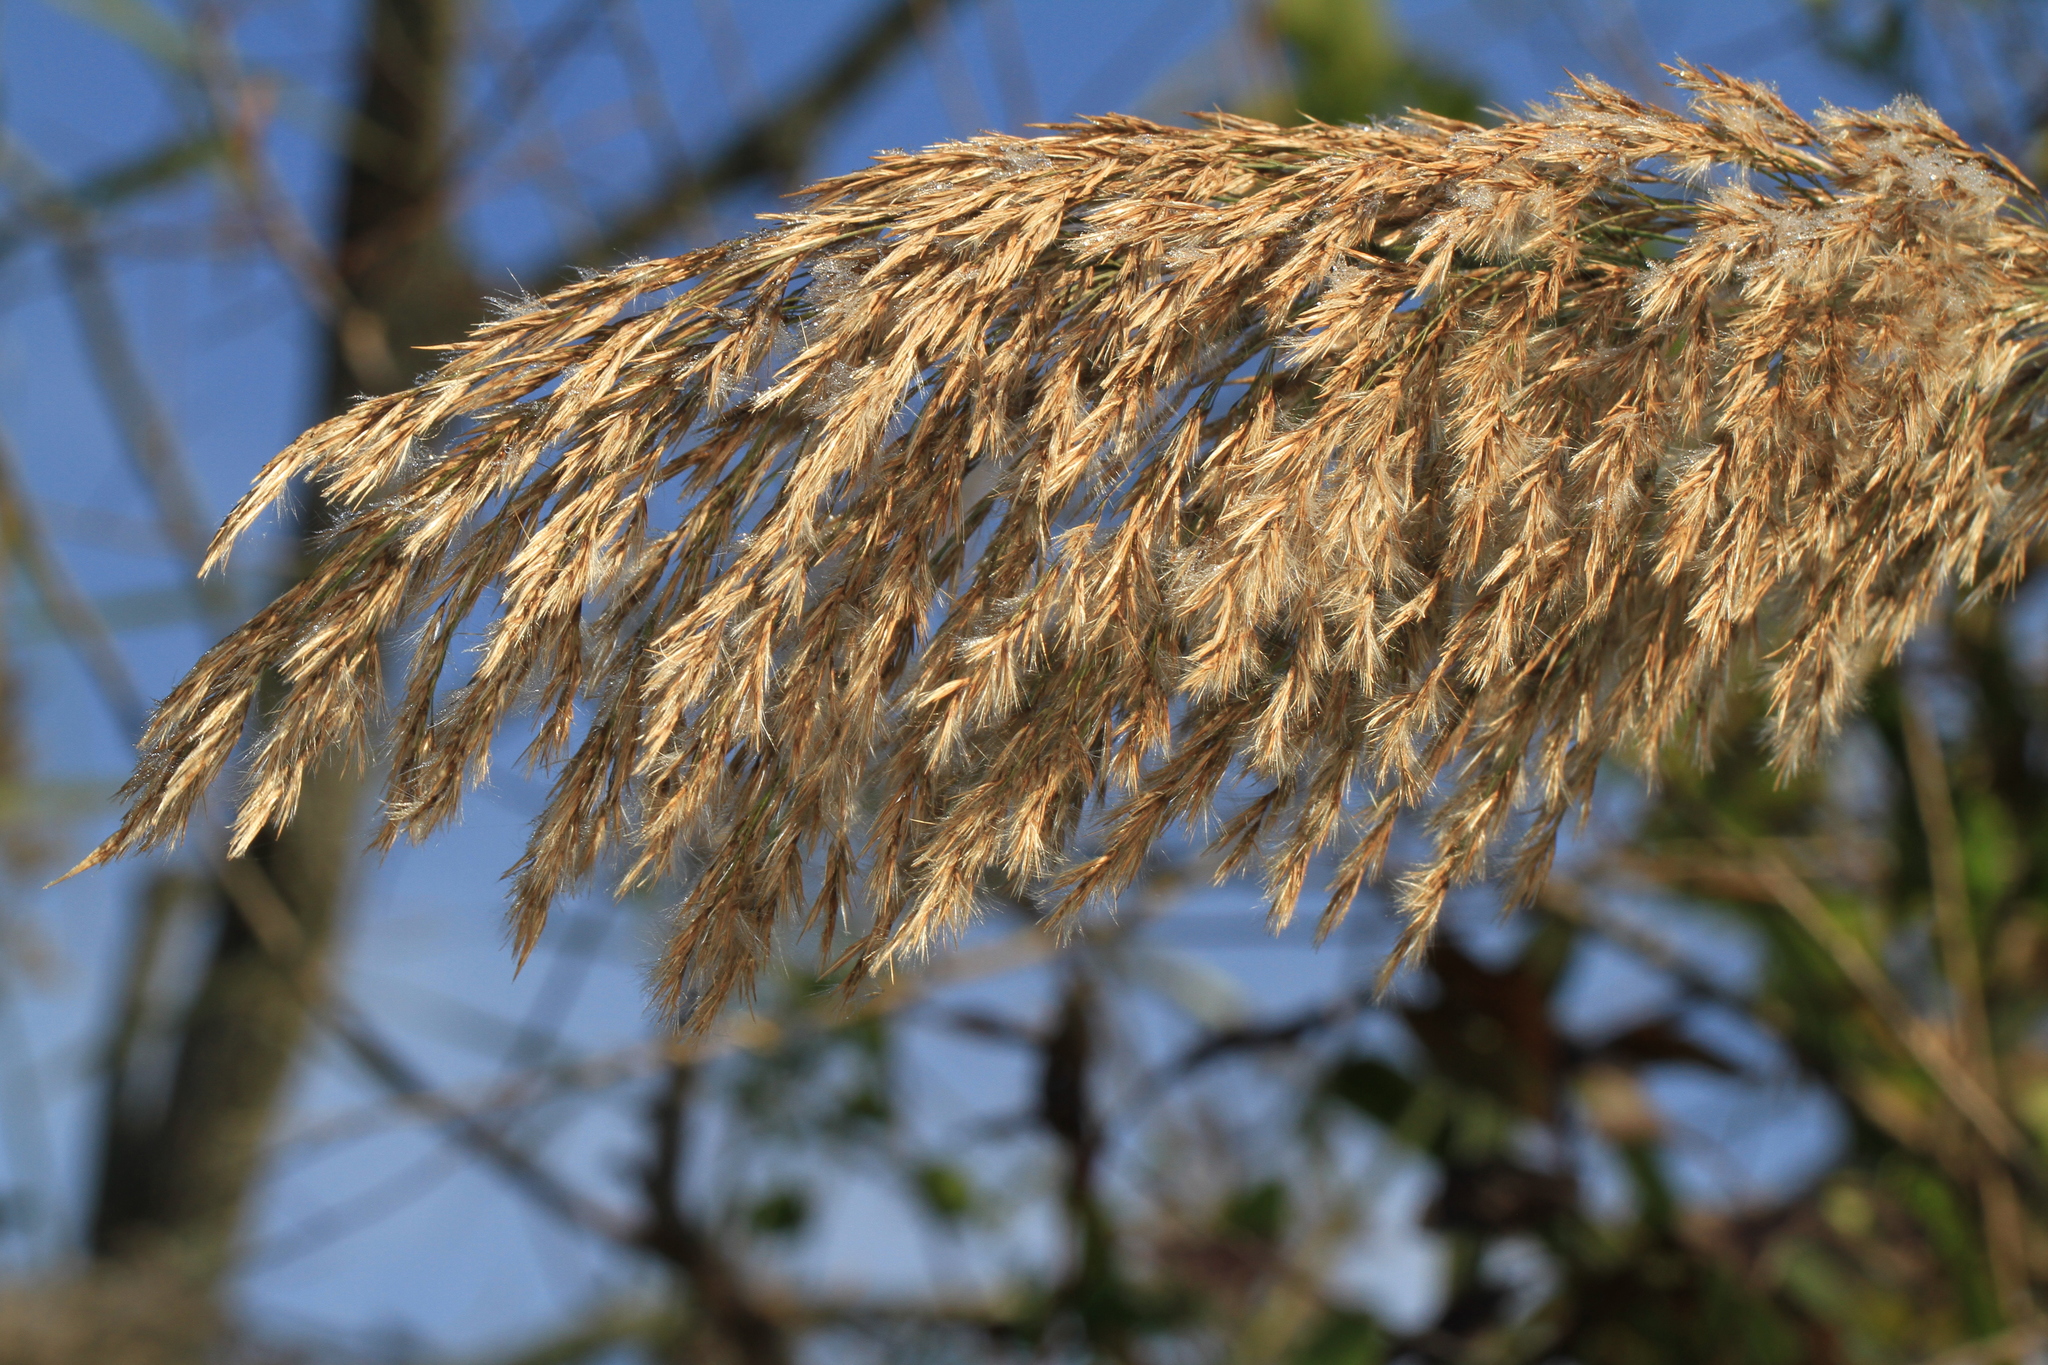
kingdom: Plantae
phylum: Tracheophyta
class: Liliopsida
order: Poales
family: Poaceae
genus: Phragmites
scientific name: Phragmites australis
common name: Common reed
